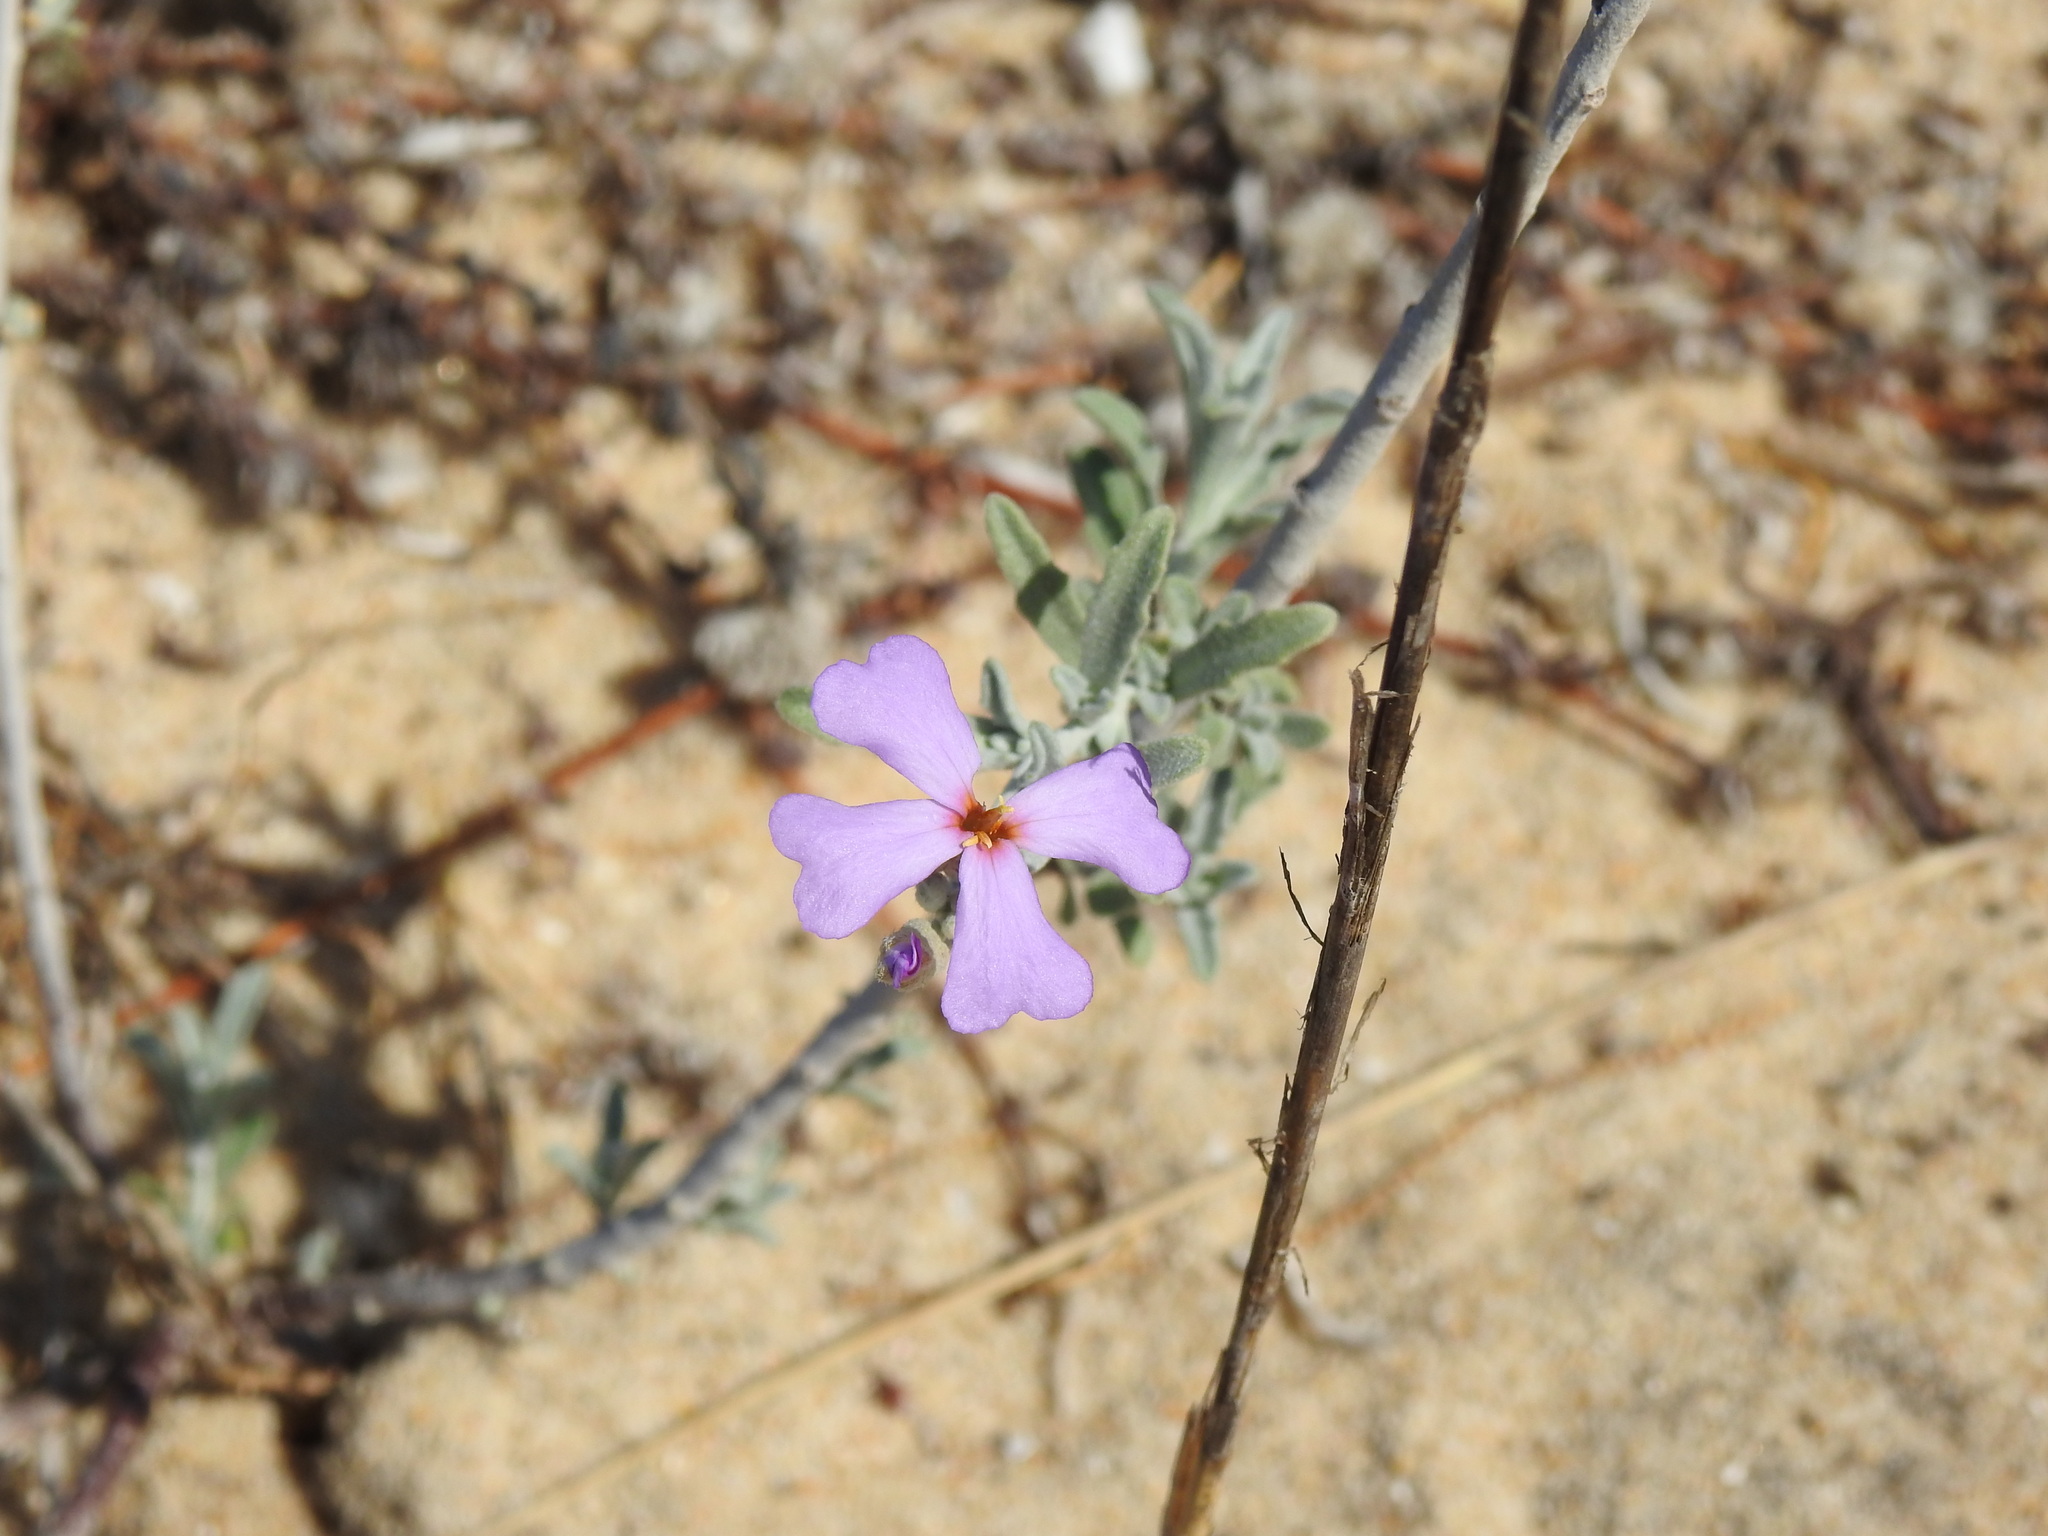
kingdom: Plantae
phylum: Tracheophyta
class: Magnoliopsida
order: Brassicales
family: Brassicaceae
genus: Marcuskochia
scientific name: Marcuskochia littorea
